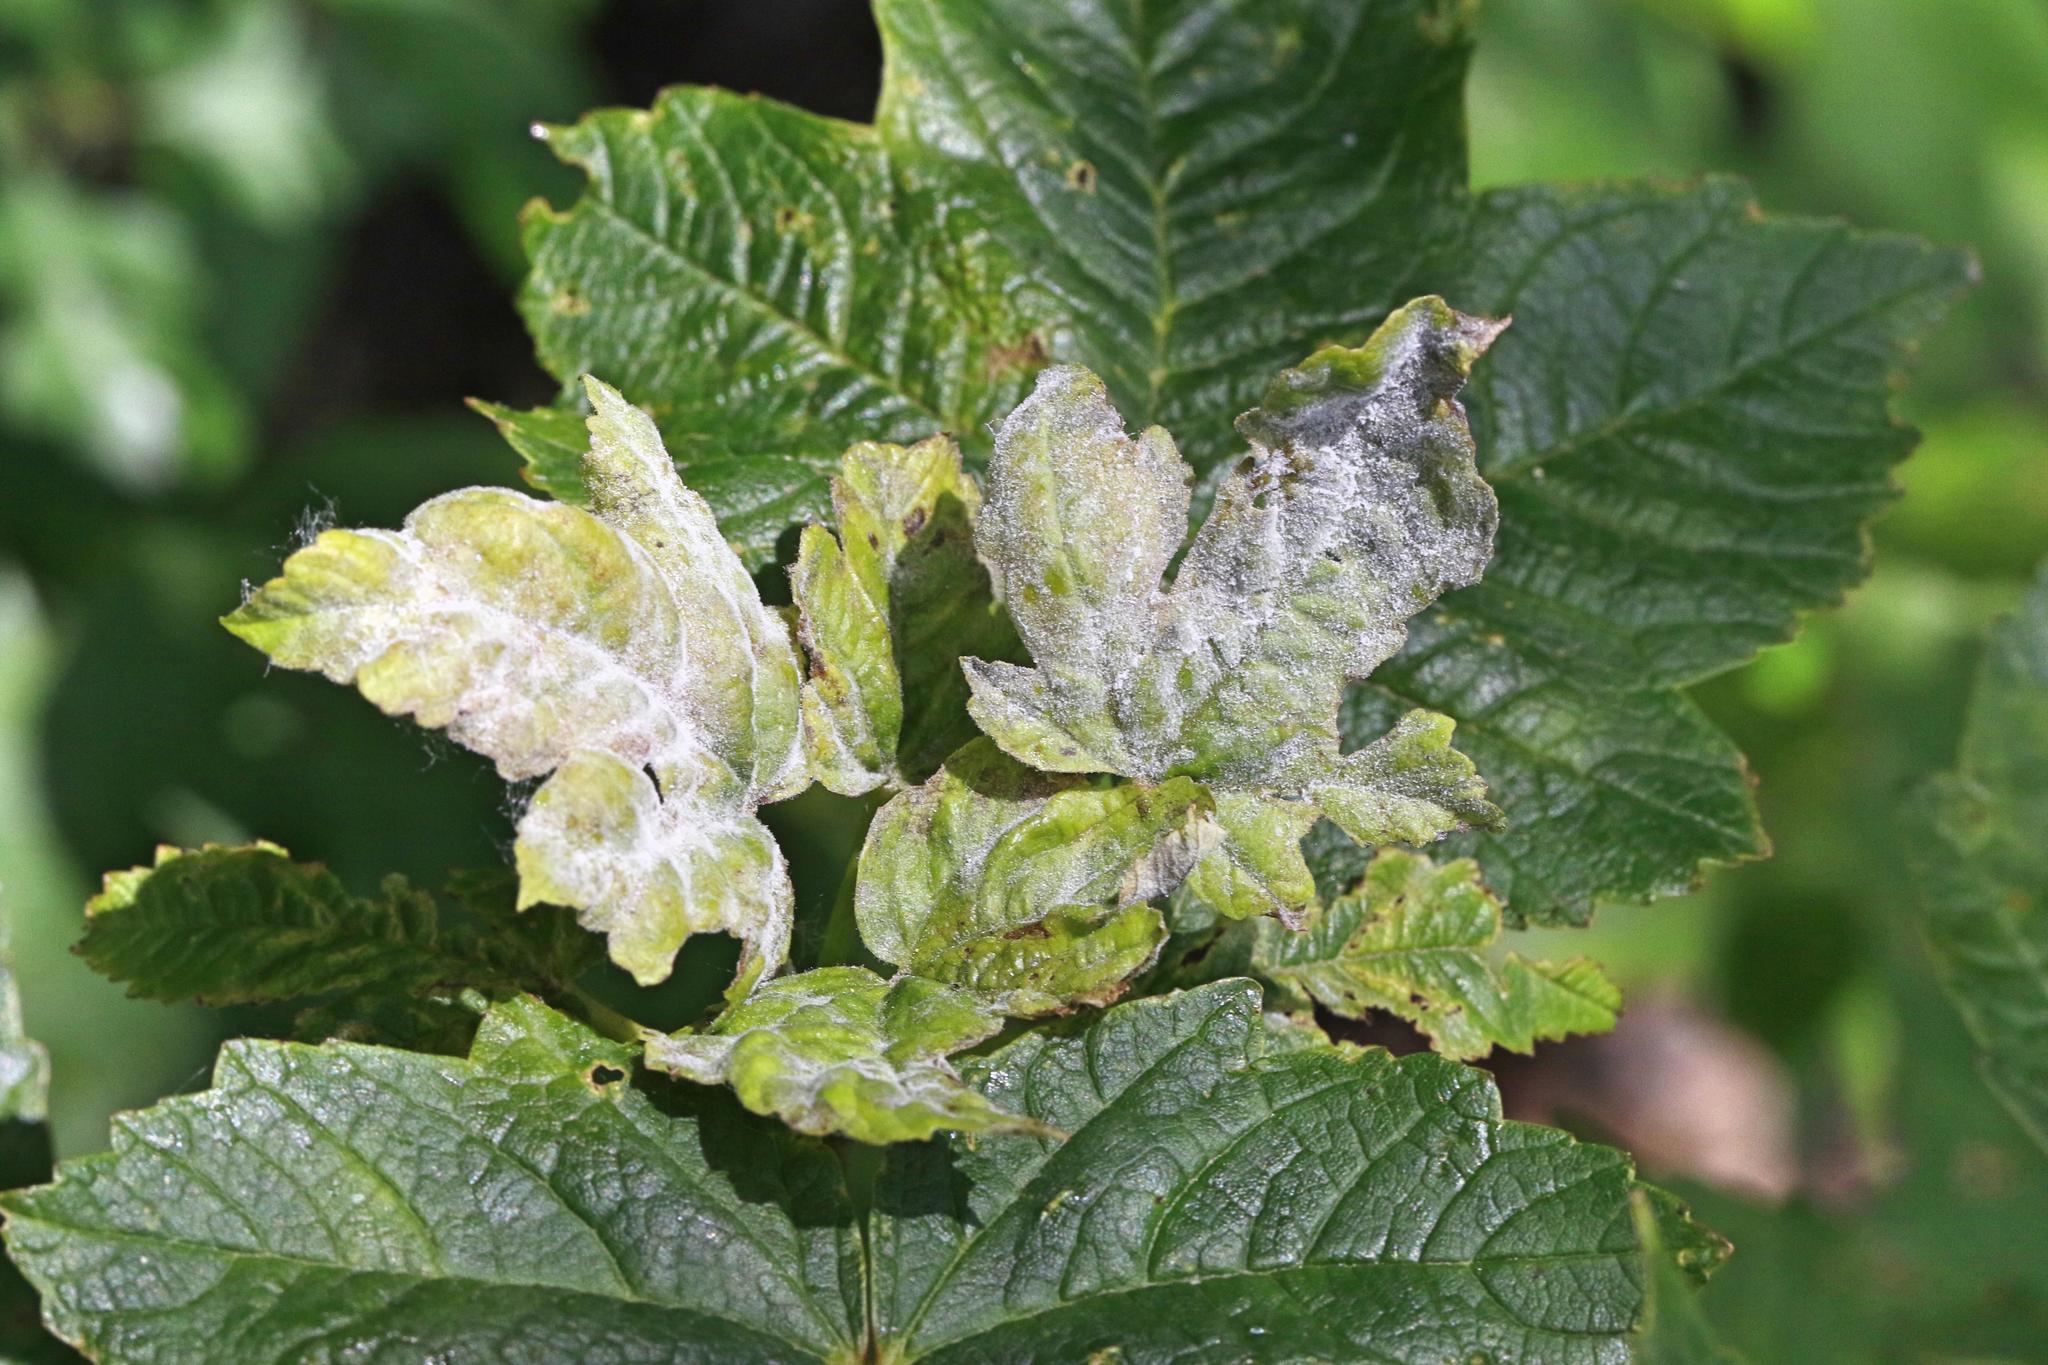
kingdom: Fungi
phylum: Ascomycota
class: Leotiomycetes
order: Helotiales
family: Erysiphaceae
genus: Sawadaea
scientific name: Sawadaea bicornis
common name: Maple mildew
